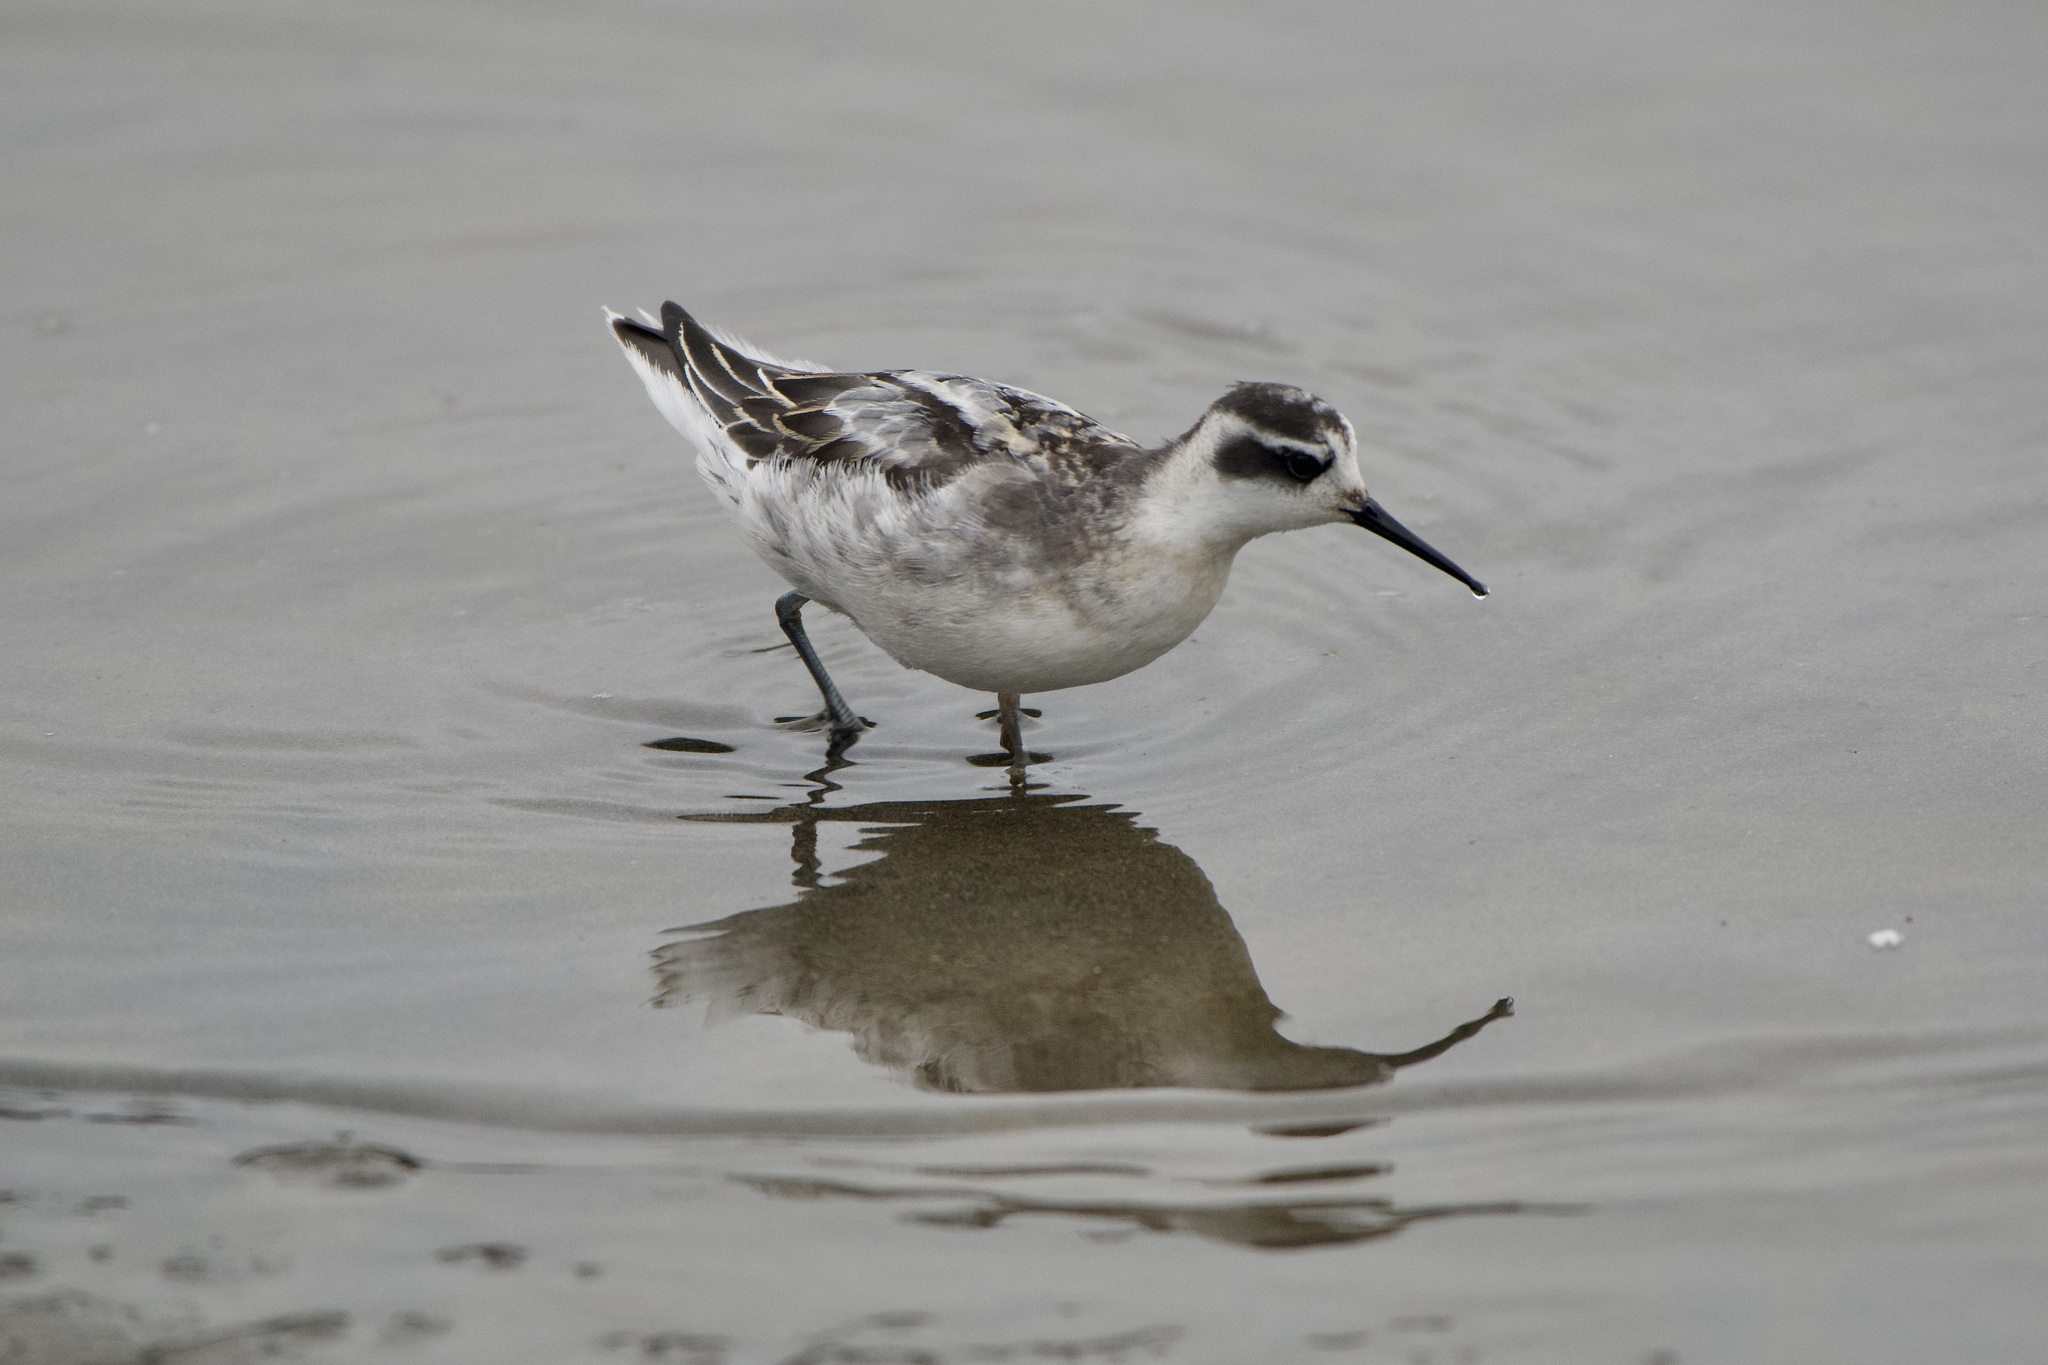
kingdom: Animalia
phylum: Chordata
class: Aves
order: Charadriiformes
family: Scolopacidae
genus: Phalaropus
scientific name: Phalaropus lobatus
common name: Red-necked phalarope
